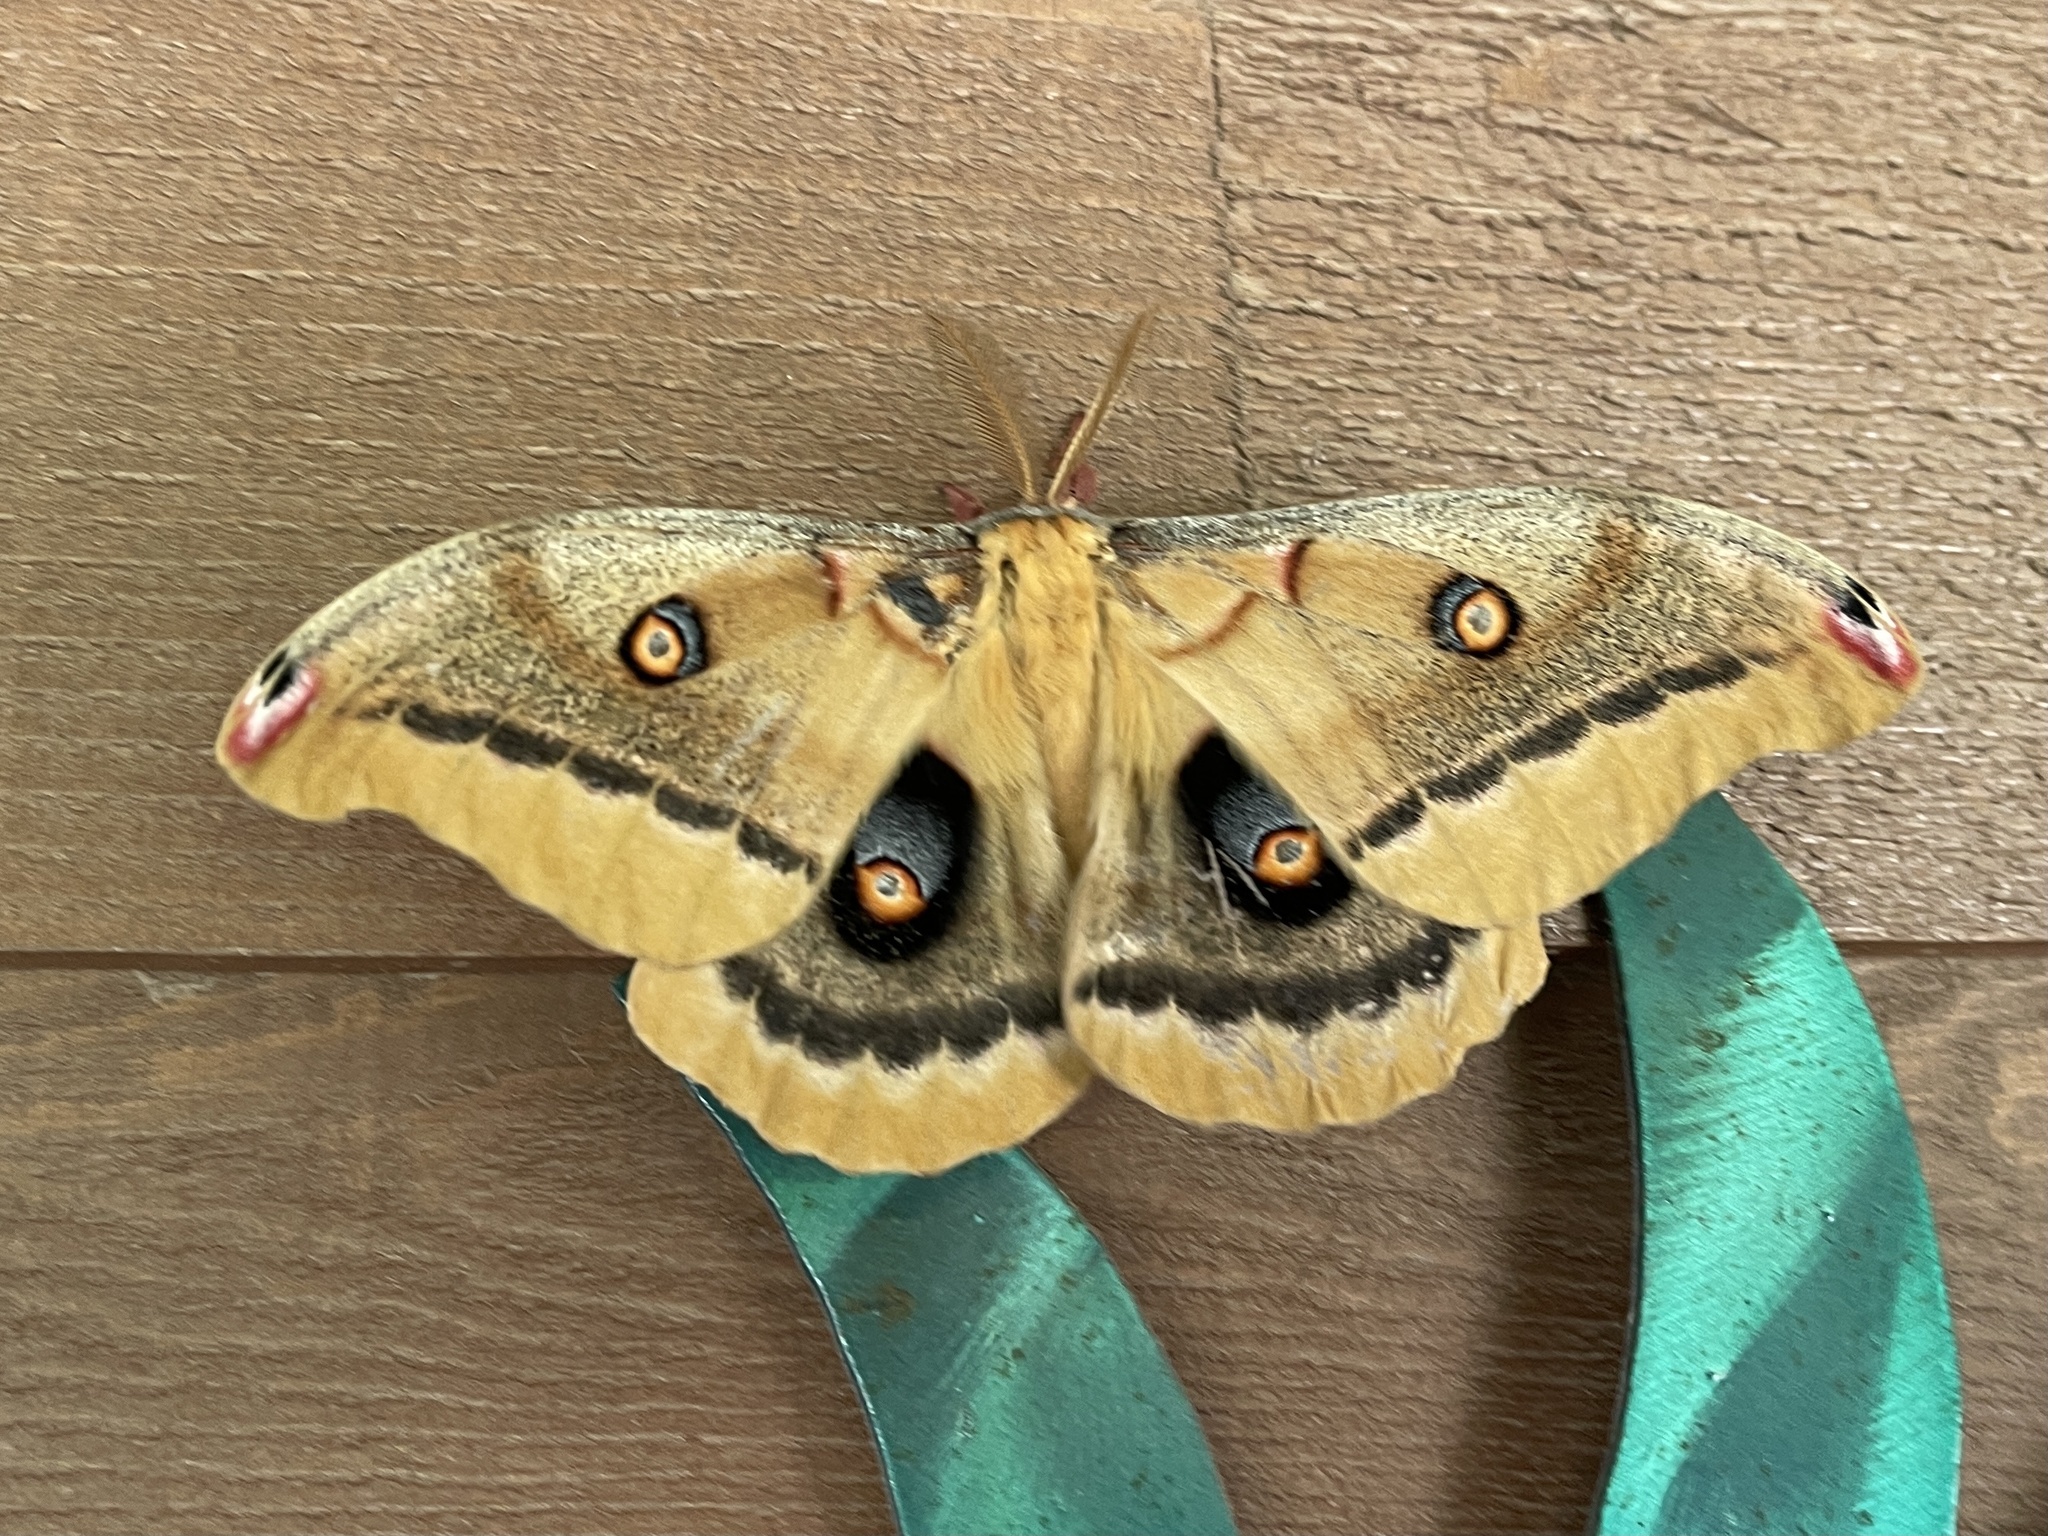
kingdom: Animalia
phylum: Arthropoda
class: Insecta
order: Lepidoptera
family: Saturniidae
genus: Antheraea
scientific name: Antheraea oculea
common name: Arizona polyphemus moth
